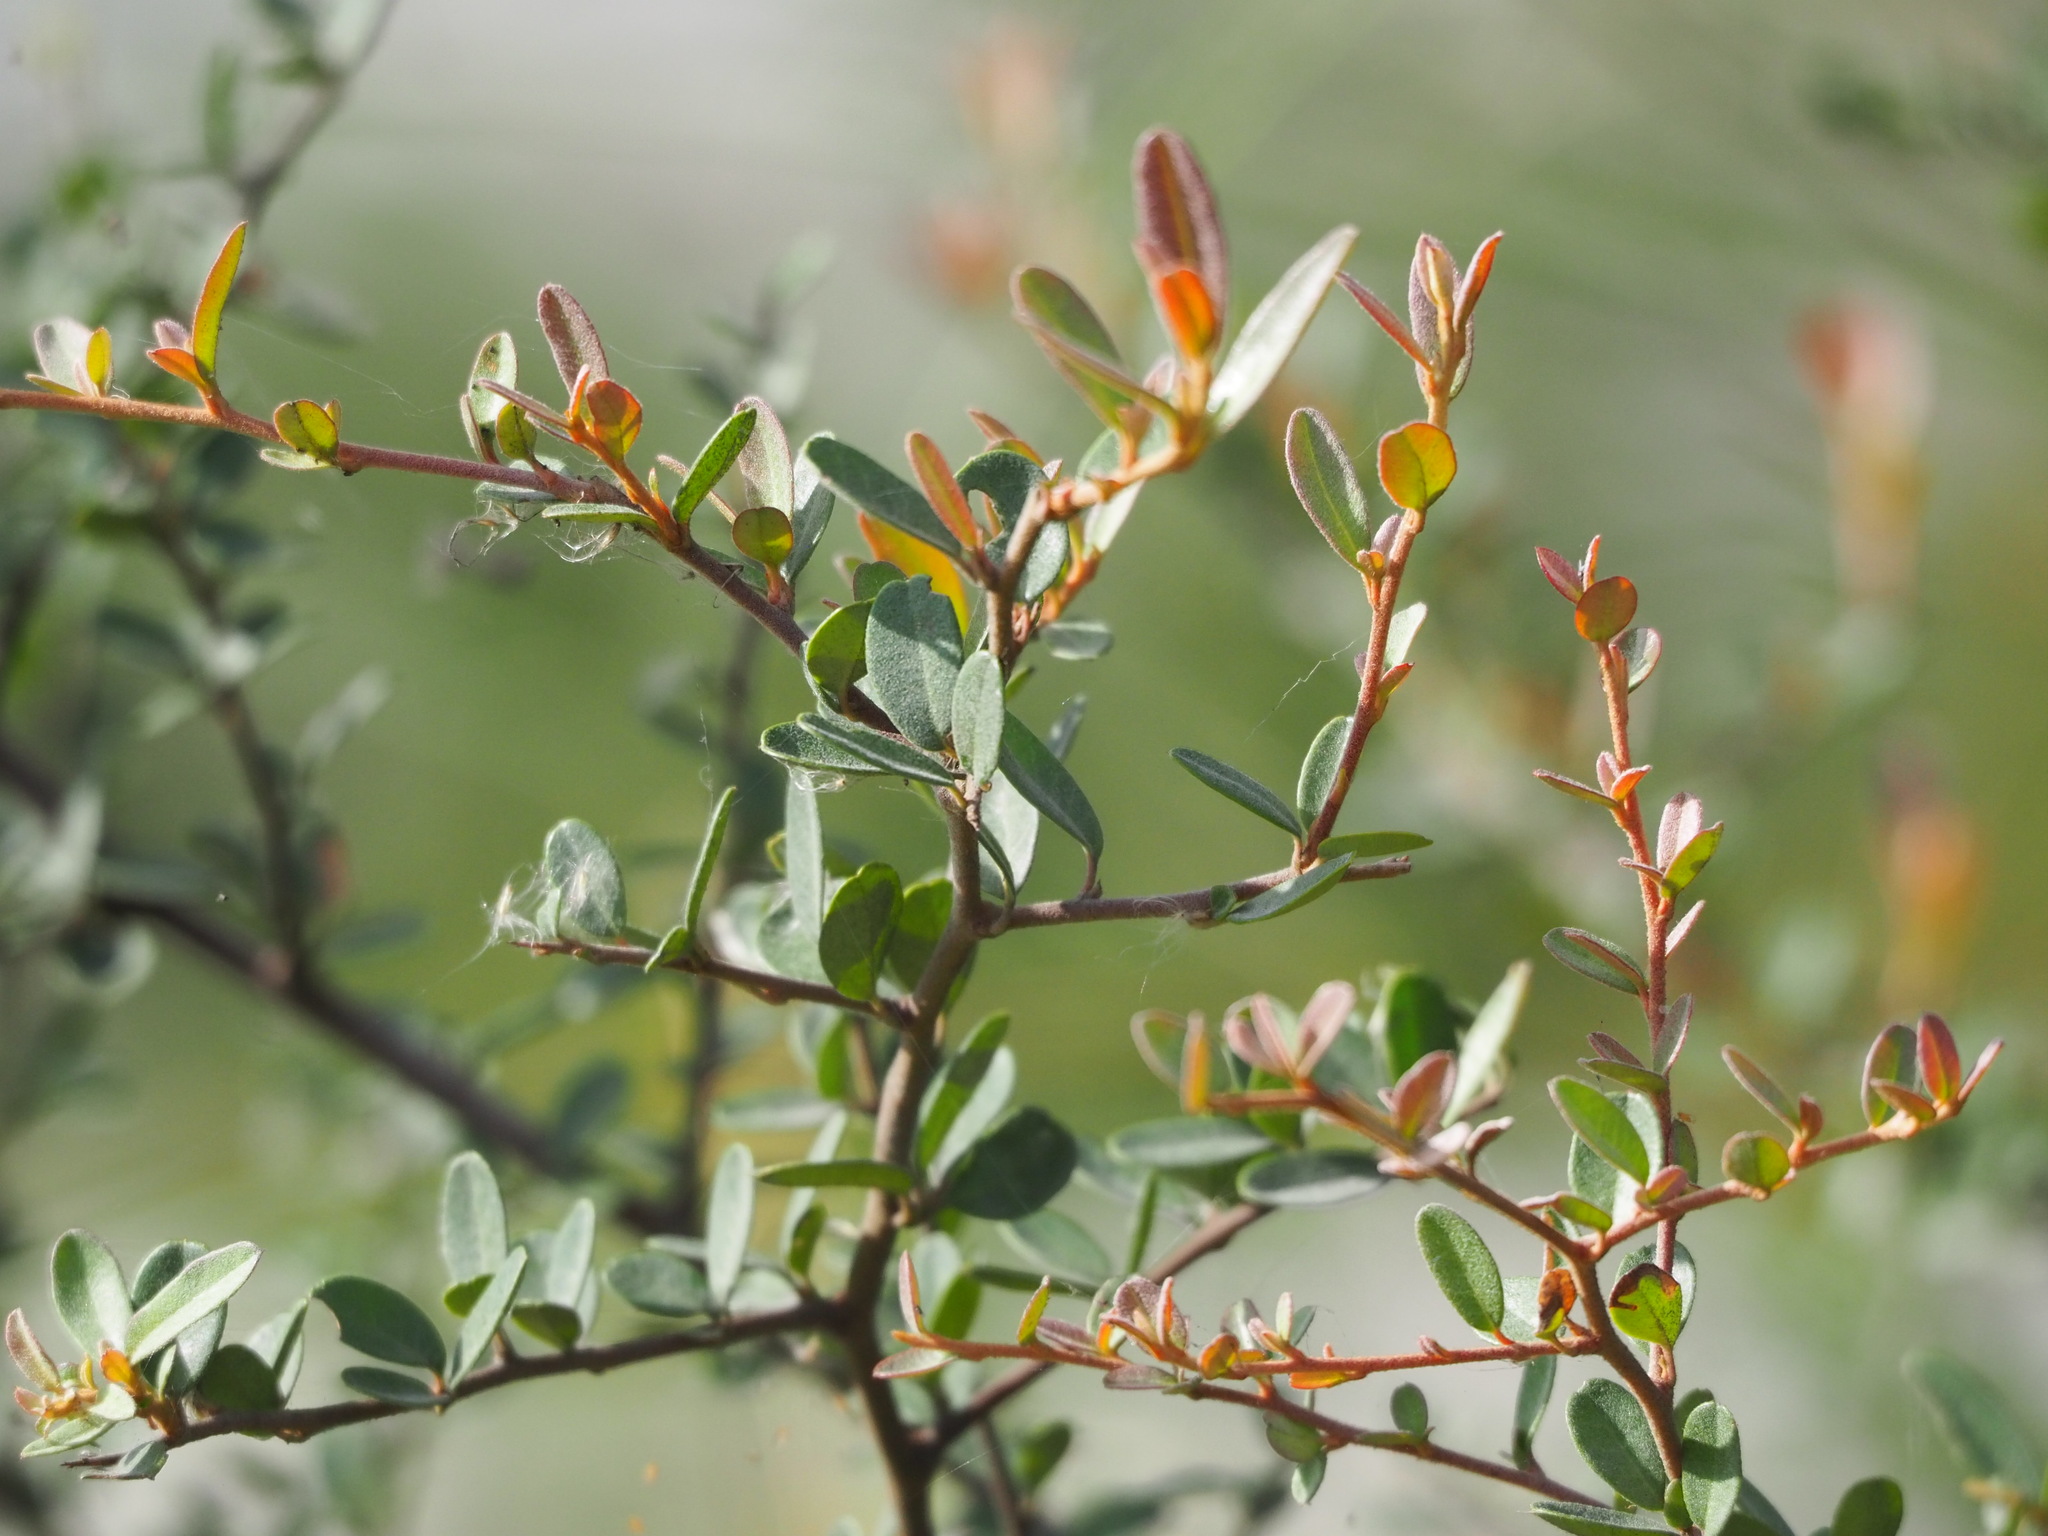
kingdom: Plantae
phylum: Tracheophyta
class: Magnoliopsida
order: Rosales
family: Rosaceae
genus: Pyracantha
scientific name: Pyracantha koidzumii
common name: Formosa firethorn
